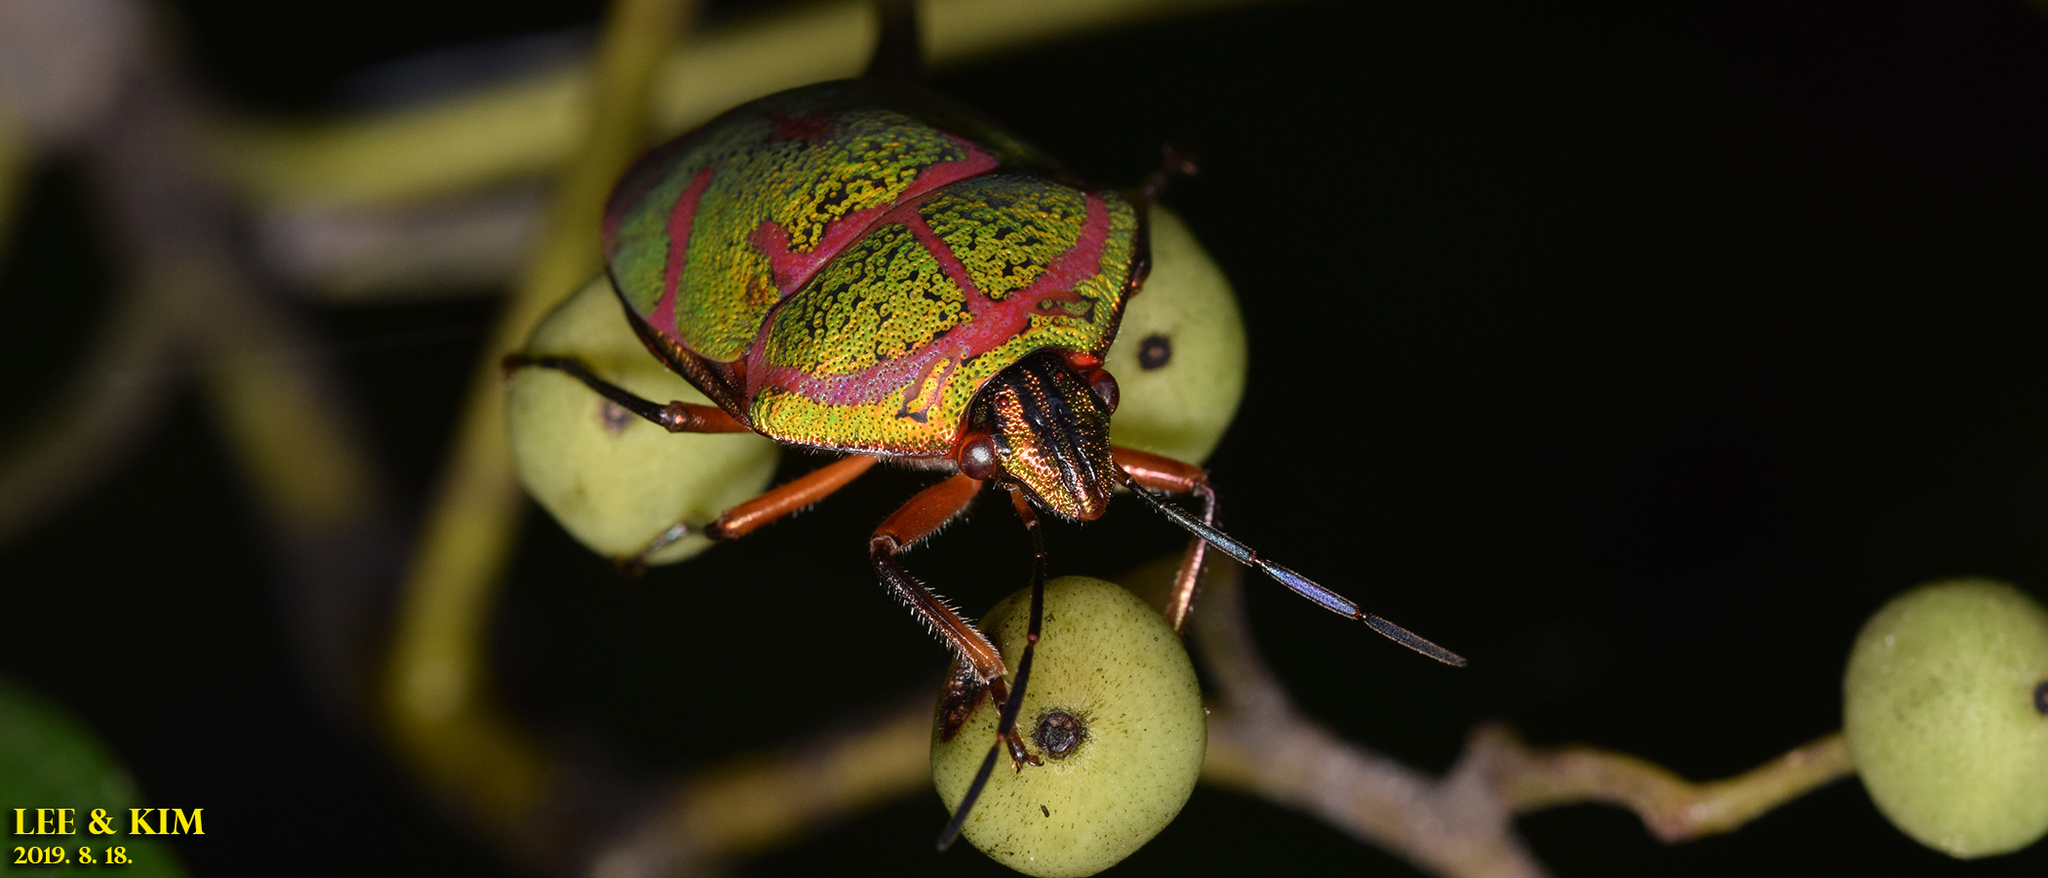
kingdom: Animalia
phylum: Arthropoda
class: Insecta
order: Hemiptera
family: Scutelleridae
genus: Poecilocoris
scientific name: Poecilocoris lewisi
